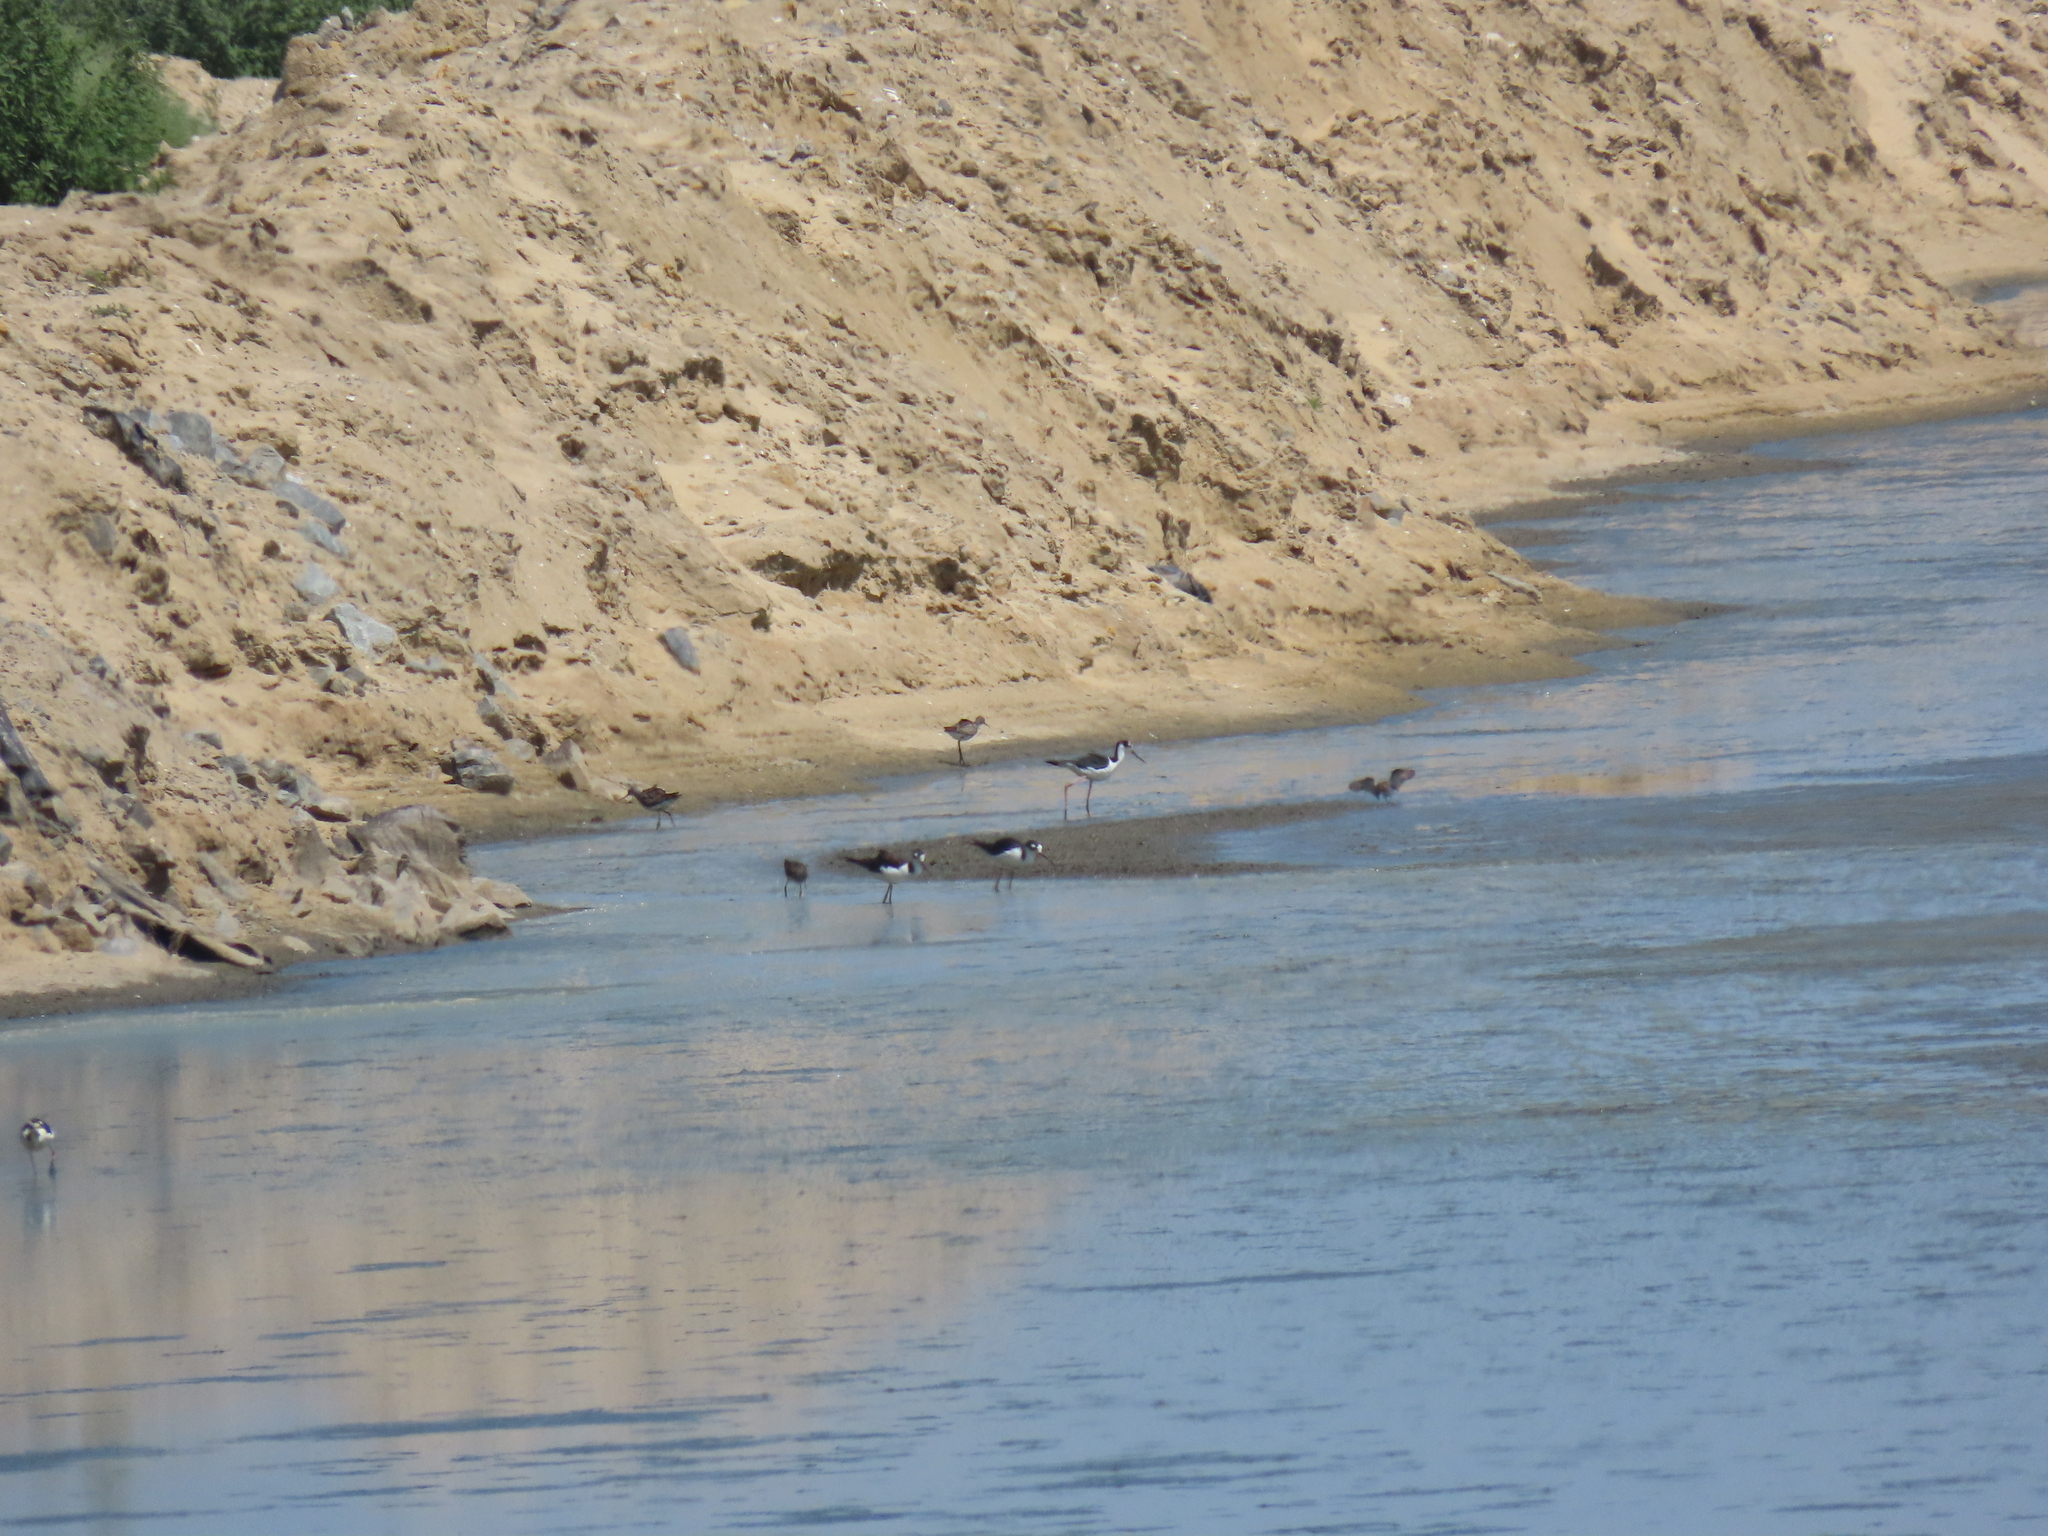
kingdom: Animalia
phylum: Chordata
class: Aves
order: Charadriiformes
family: Recurvirostridae
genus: Himantopus
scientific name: Himantopus mexicanus
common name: Black-necked stilt
